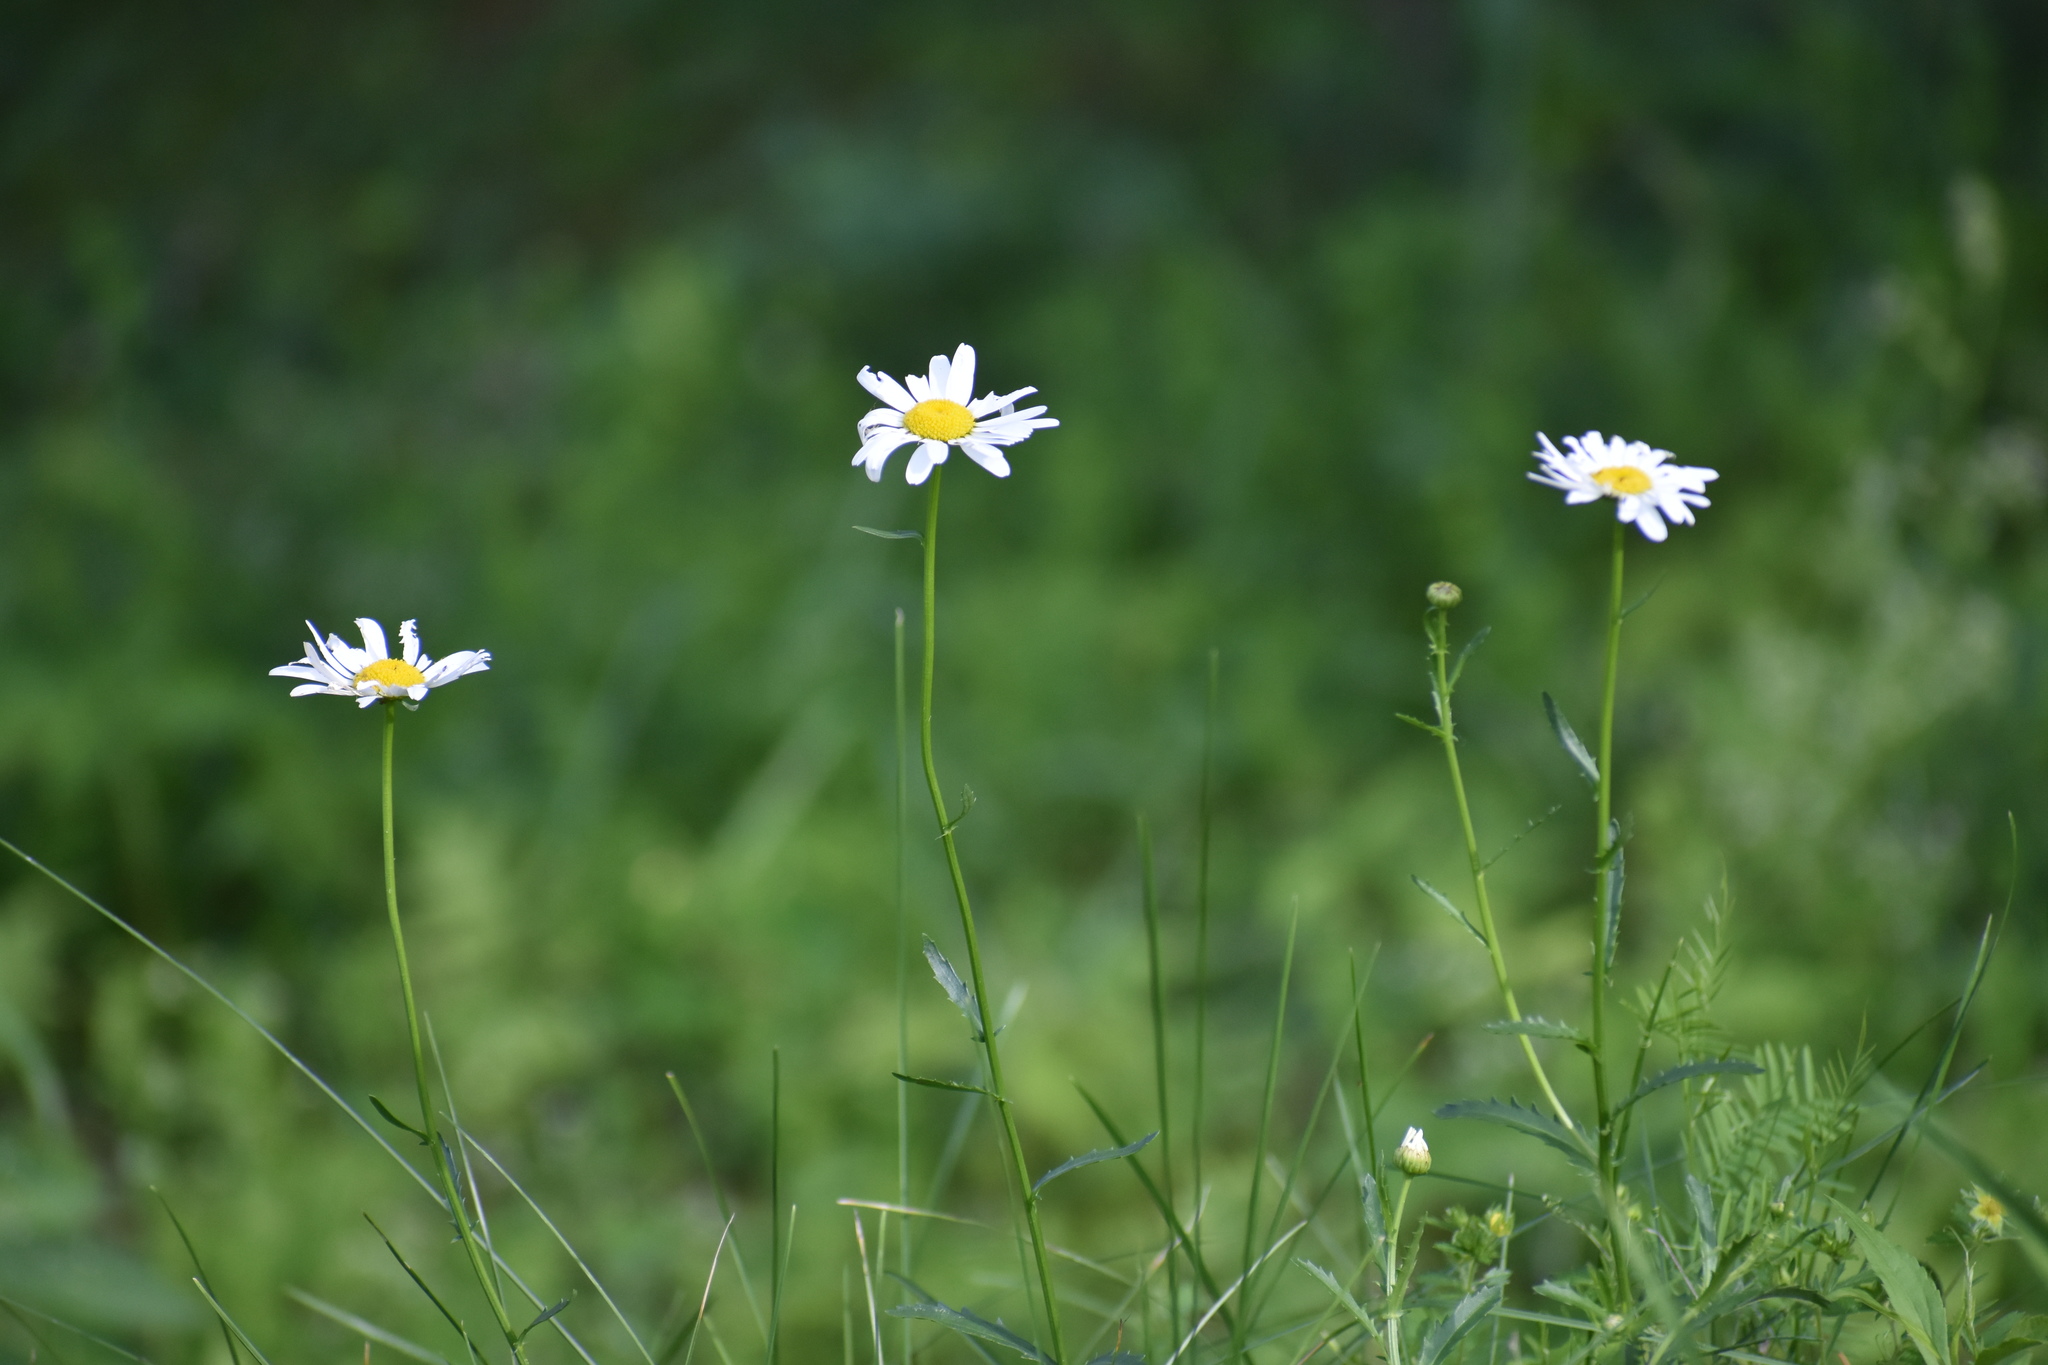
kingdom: Plantae
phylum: Tracheophyta
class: Magnoliopsida
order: Asterales
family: Asteraceae
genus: Leucanthemum
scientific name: Leucanthemum vulgare
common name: Oxeye daisy
